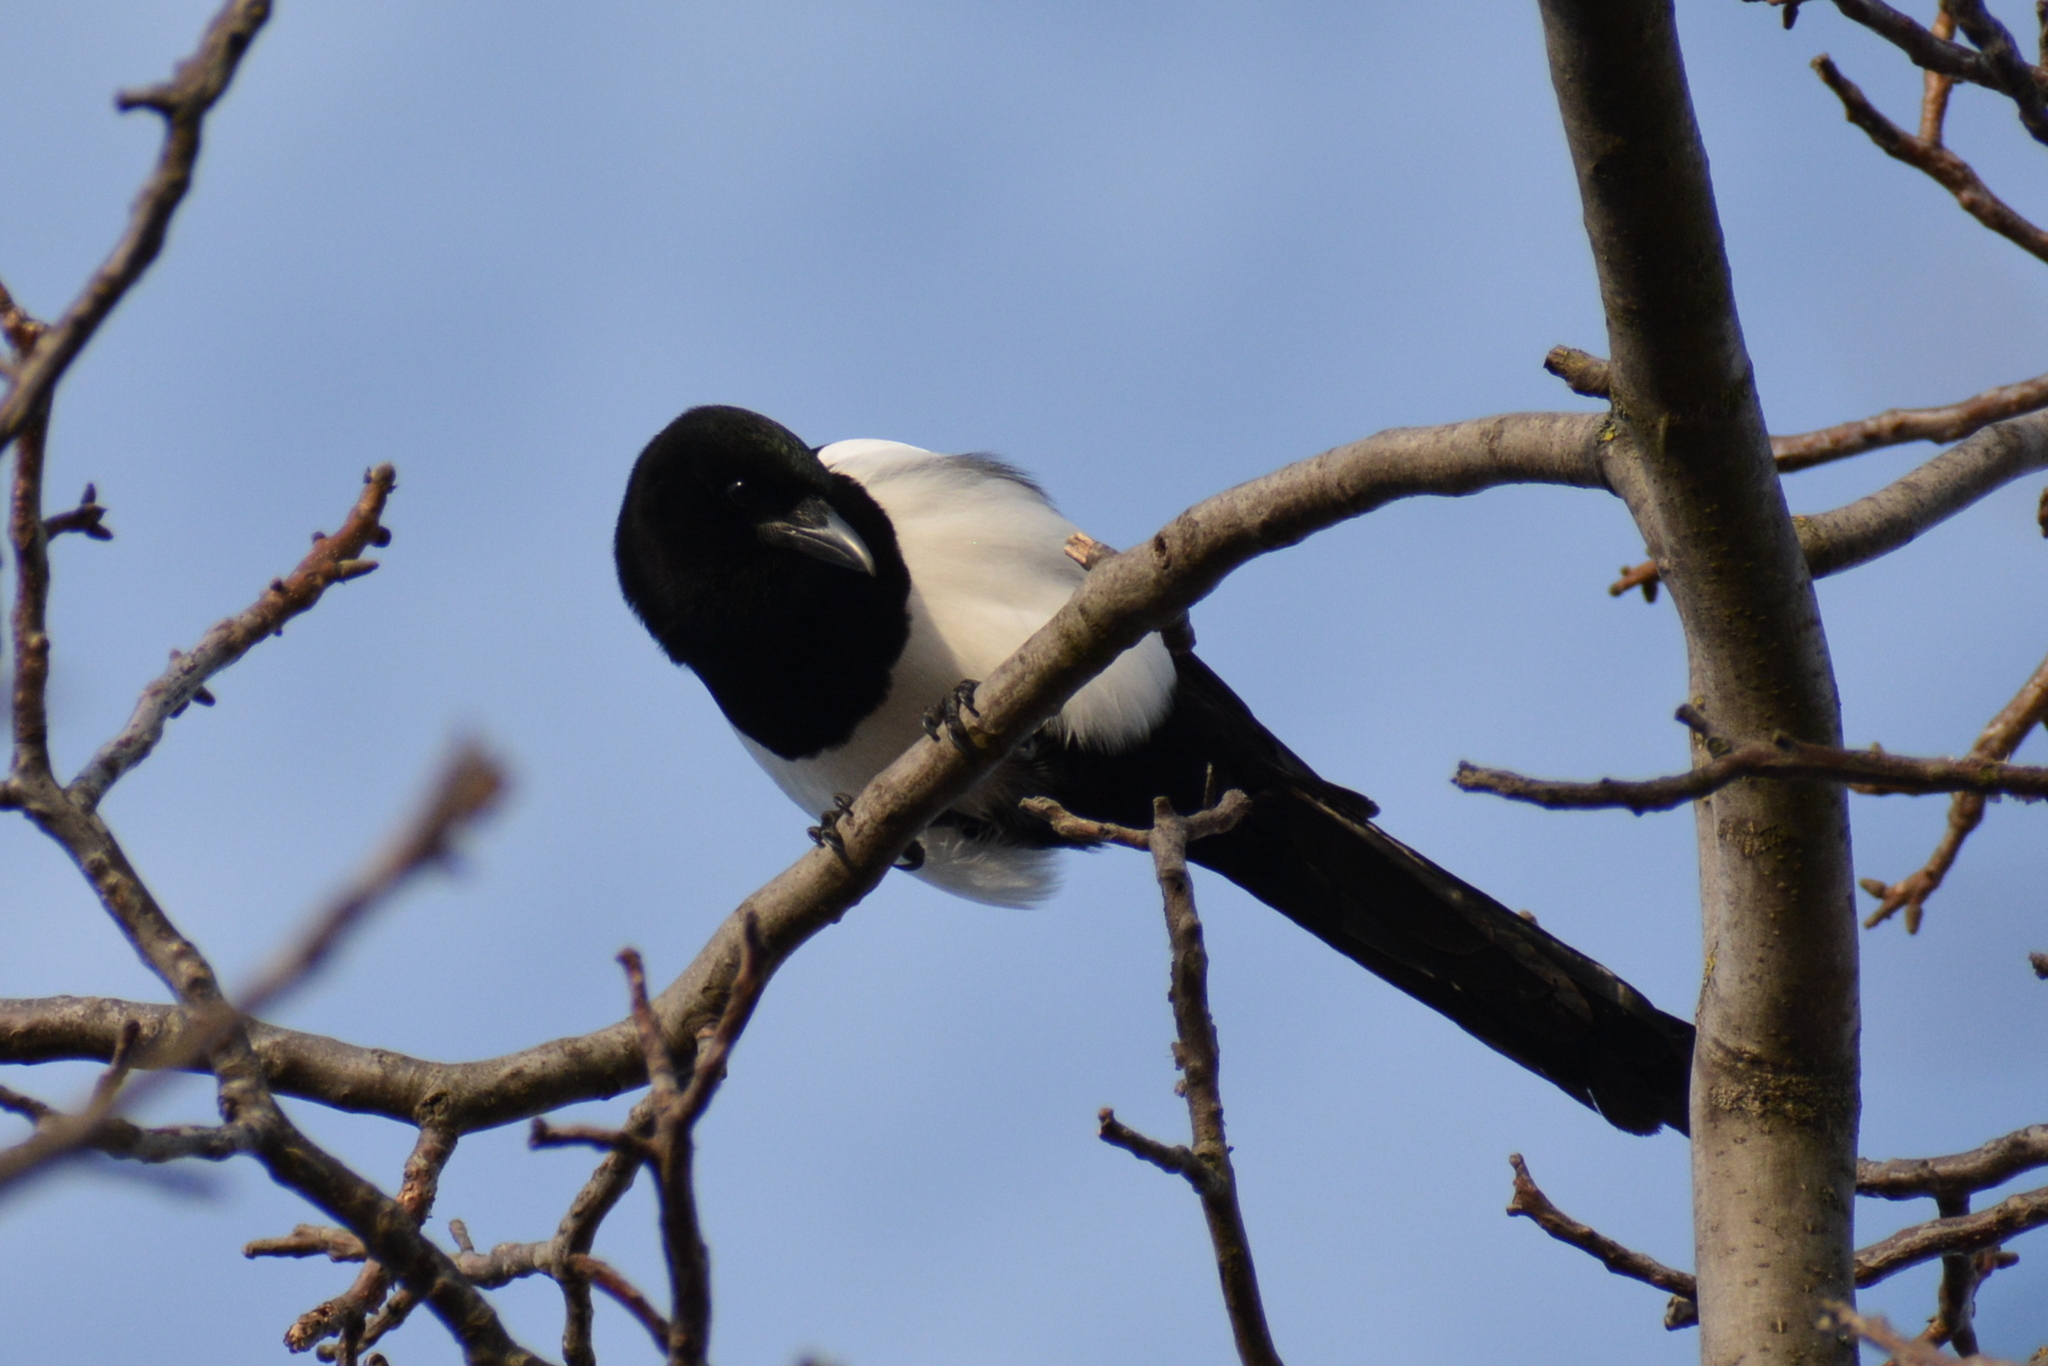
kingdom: Animalia
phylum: Chordata
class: Aves
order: Passeriformes
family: Corvidae
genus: Pica
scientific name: Pica pica
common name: Eurasian magpie
